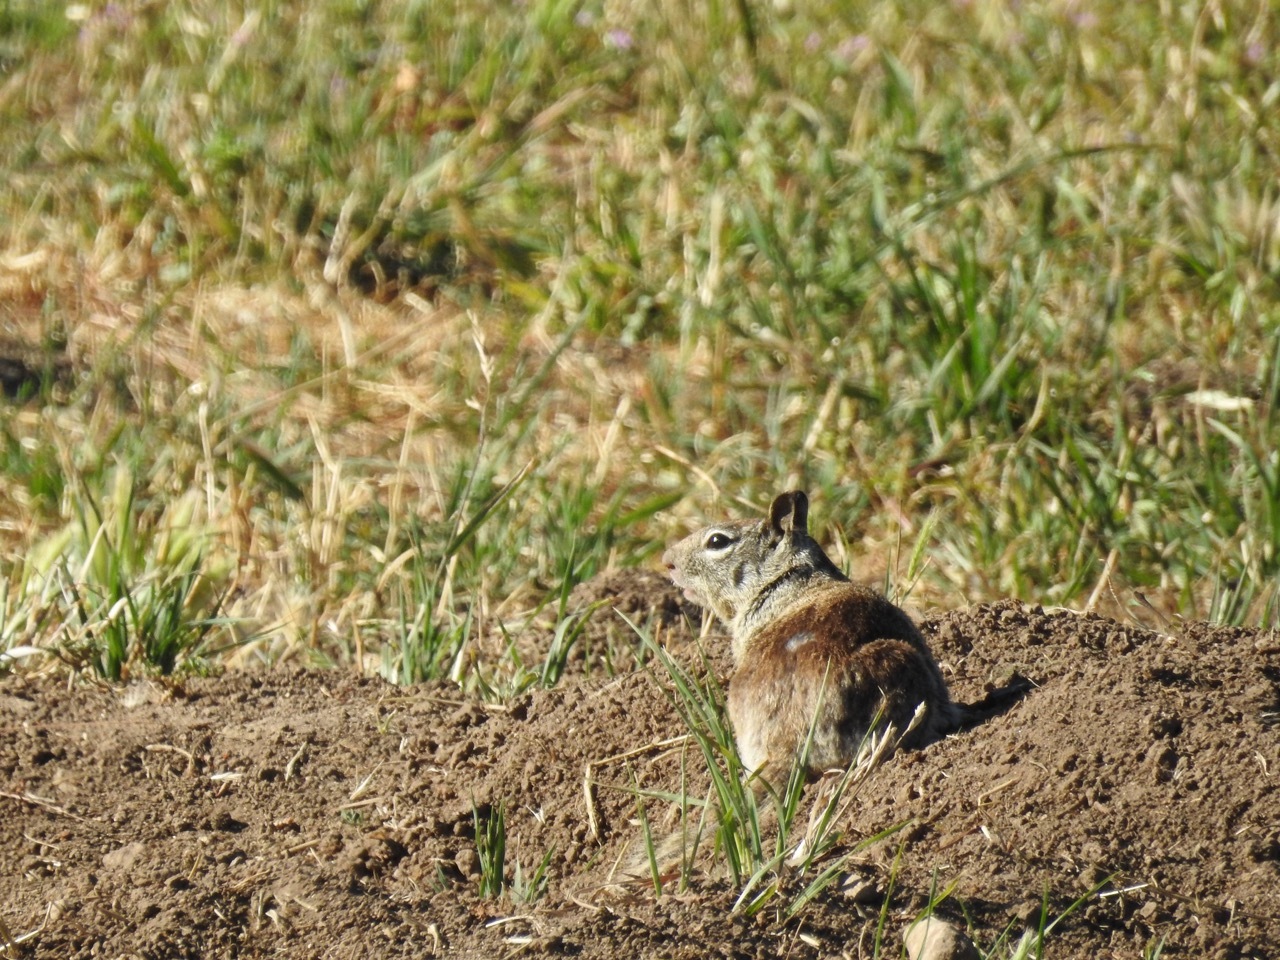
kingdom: Animalia
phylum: Chordata
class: Mammalia
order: Rodentia
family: Sciuridae
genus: Otospermophilus
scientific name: Otospermophilus beecheyi
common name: California ground squirrel
